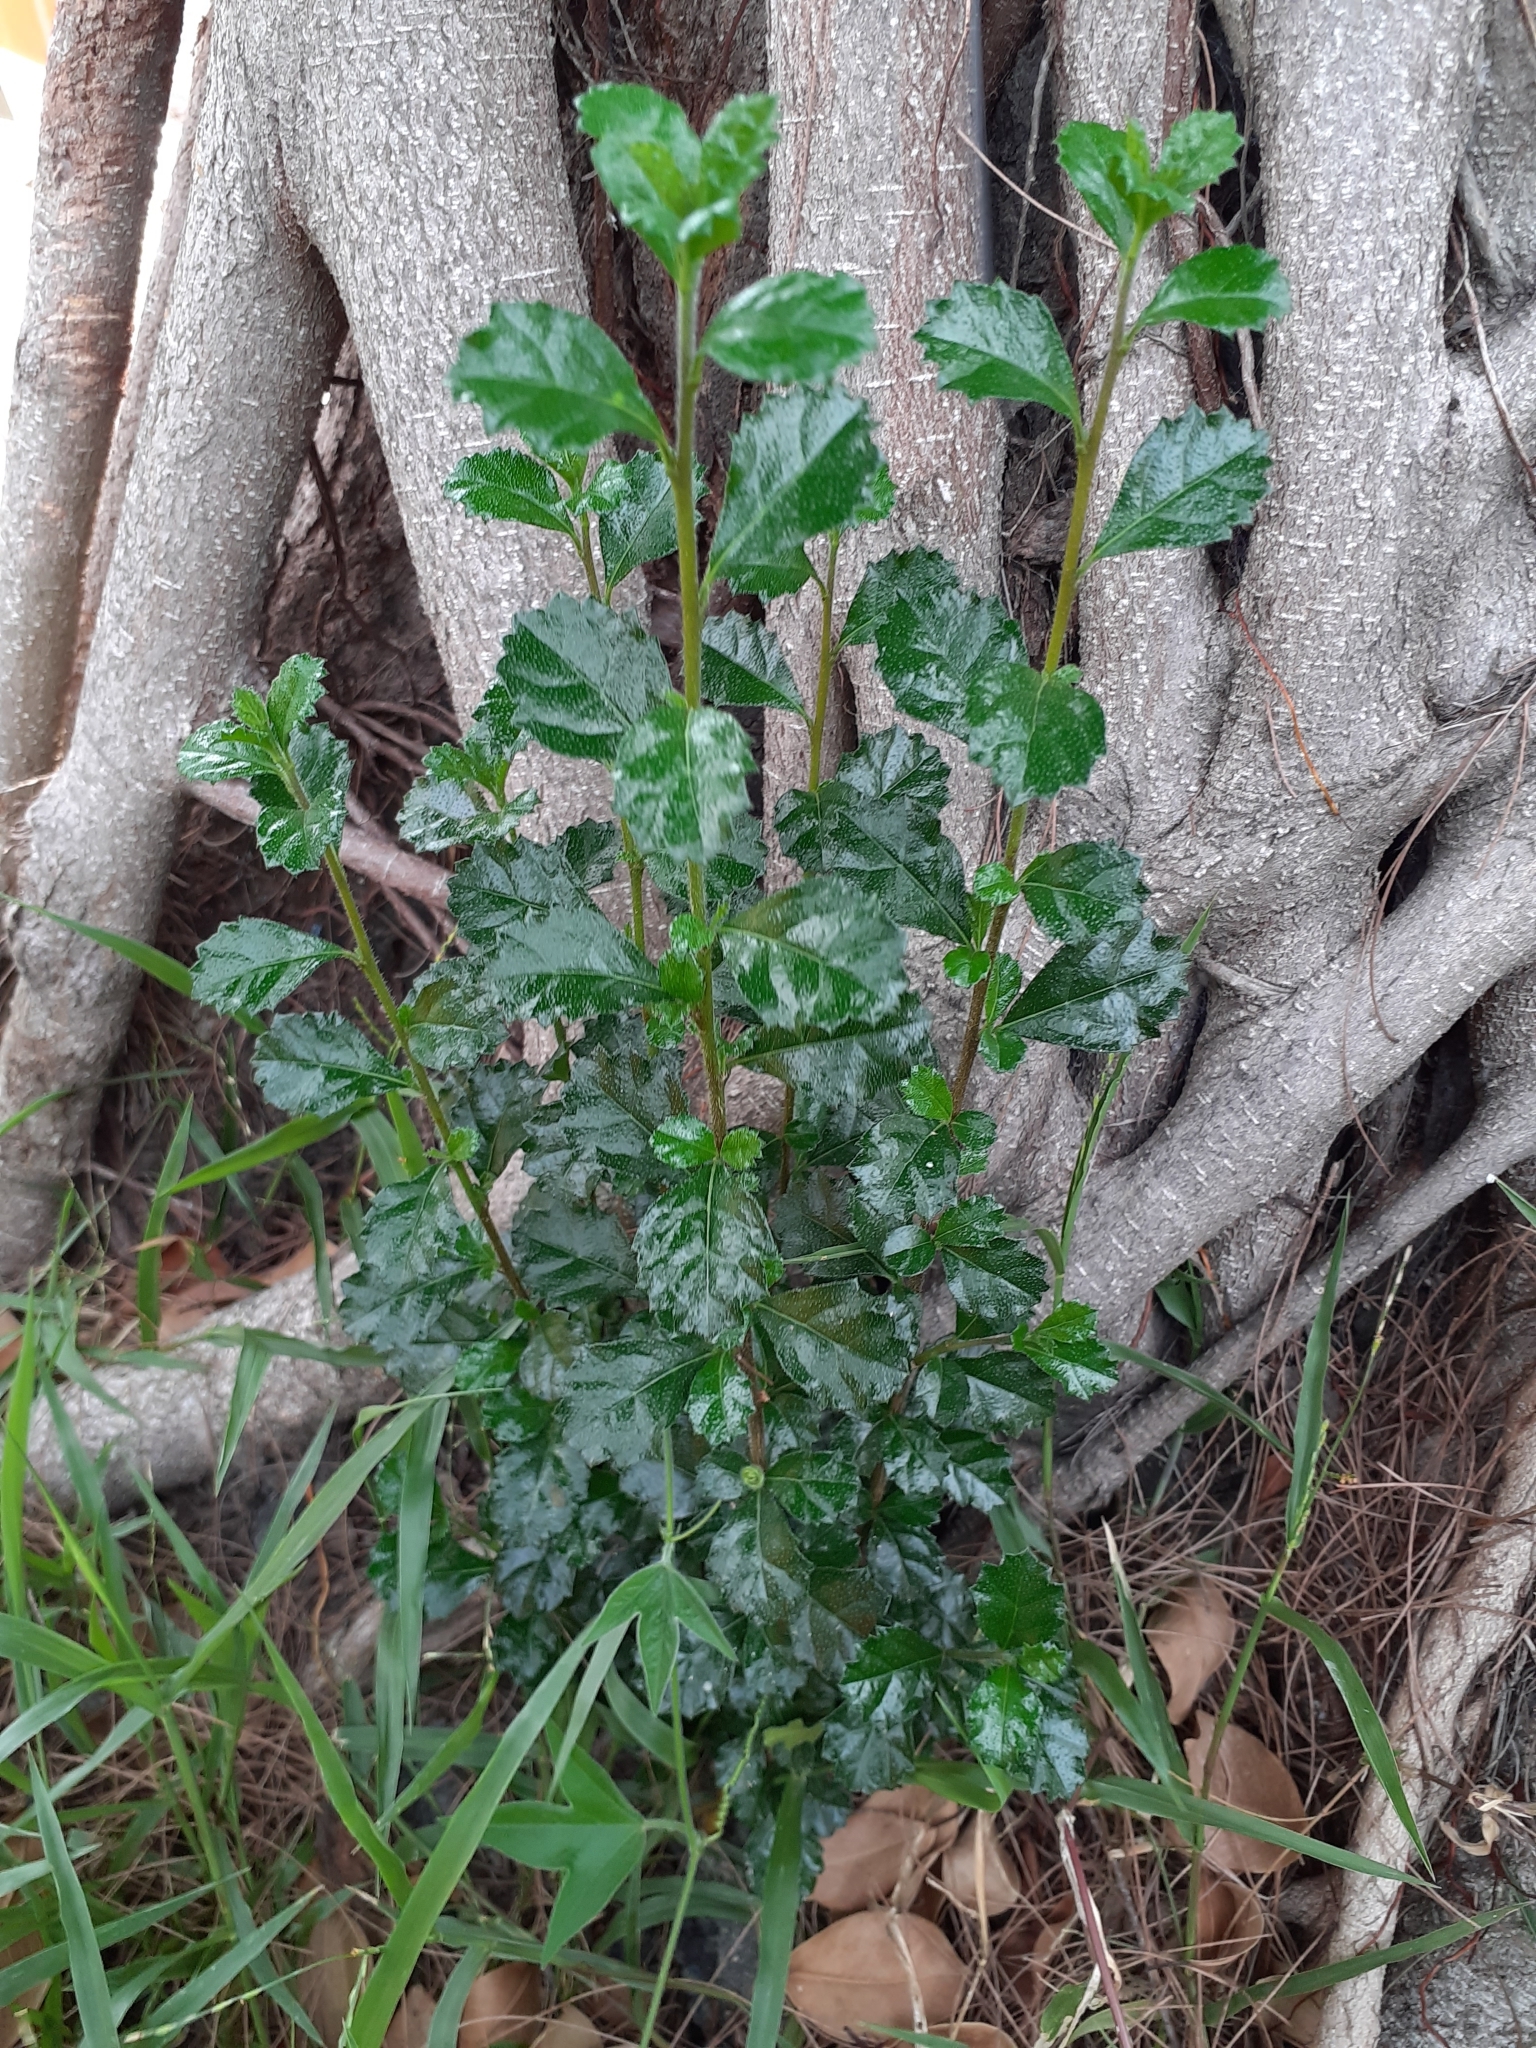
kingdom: Plantae
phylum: Tracheophyta
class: Magnoliopsida
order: Boraginales
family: Ehretiaceae
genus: Ehretia
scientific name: Ehretia microphylla
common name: Fukien-tea
